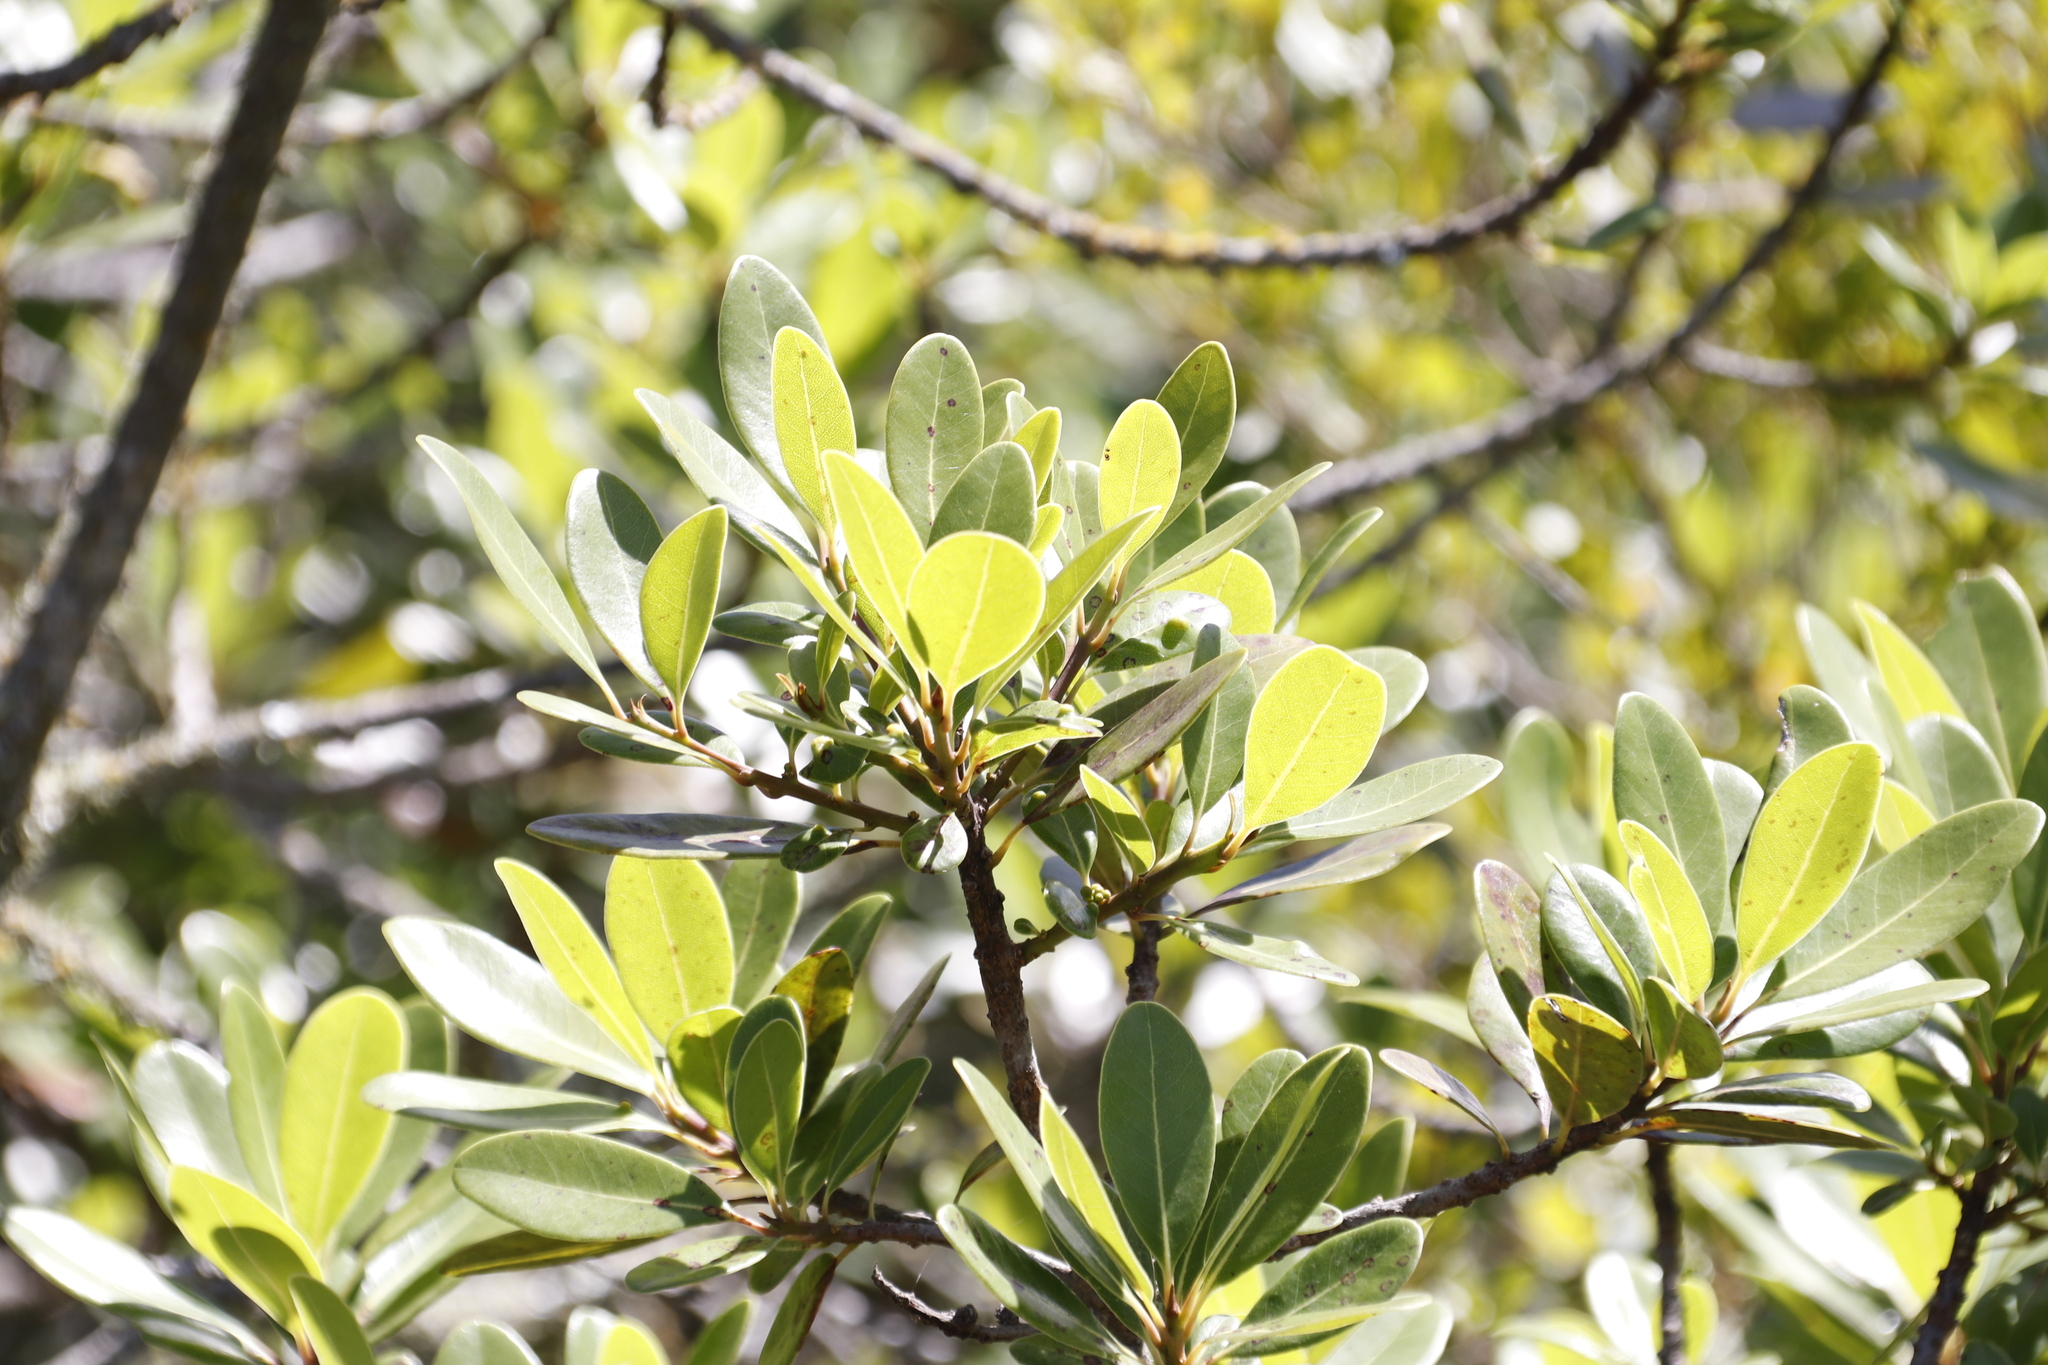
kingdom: Plantae
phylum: Tracheophyta
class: Magnoliopsida
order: Ericales
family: Sapotaceae
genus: Sideroxylon
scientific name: Sideroxylon inerme
